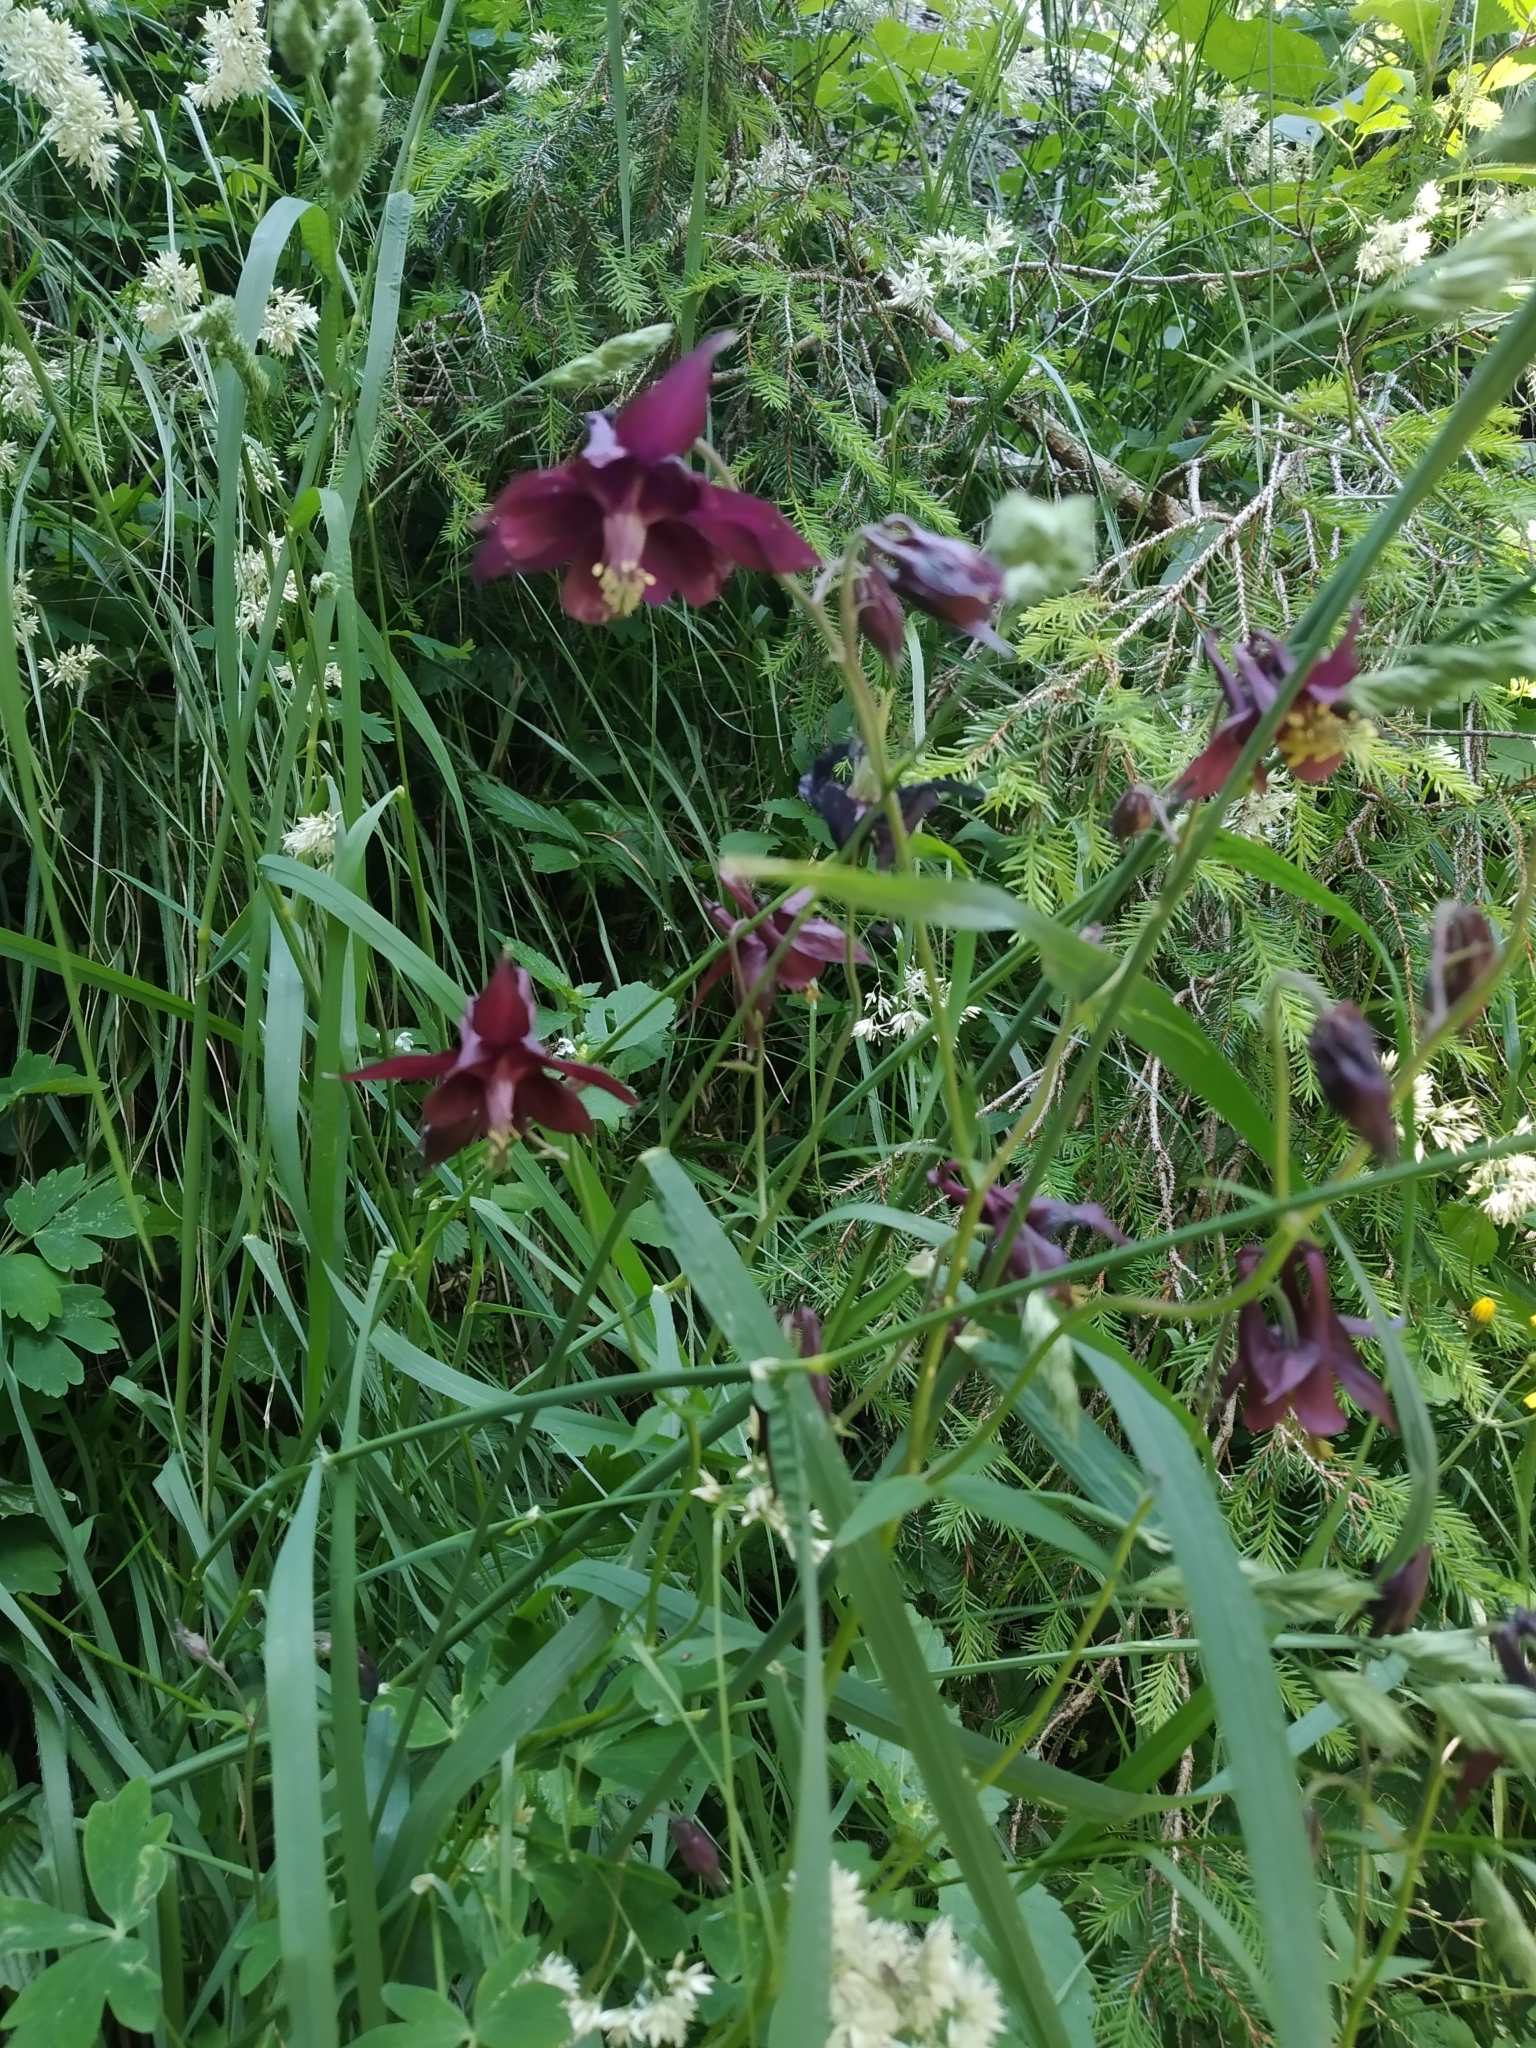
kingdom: Plantae
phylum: Tracheophyta
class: Magnoliopsida
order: Ranunculales
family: Ranunculaceae
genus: Aquilegia
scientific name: Aquilegia atrata
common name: Dark columbine
